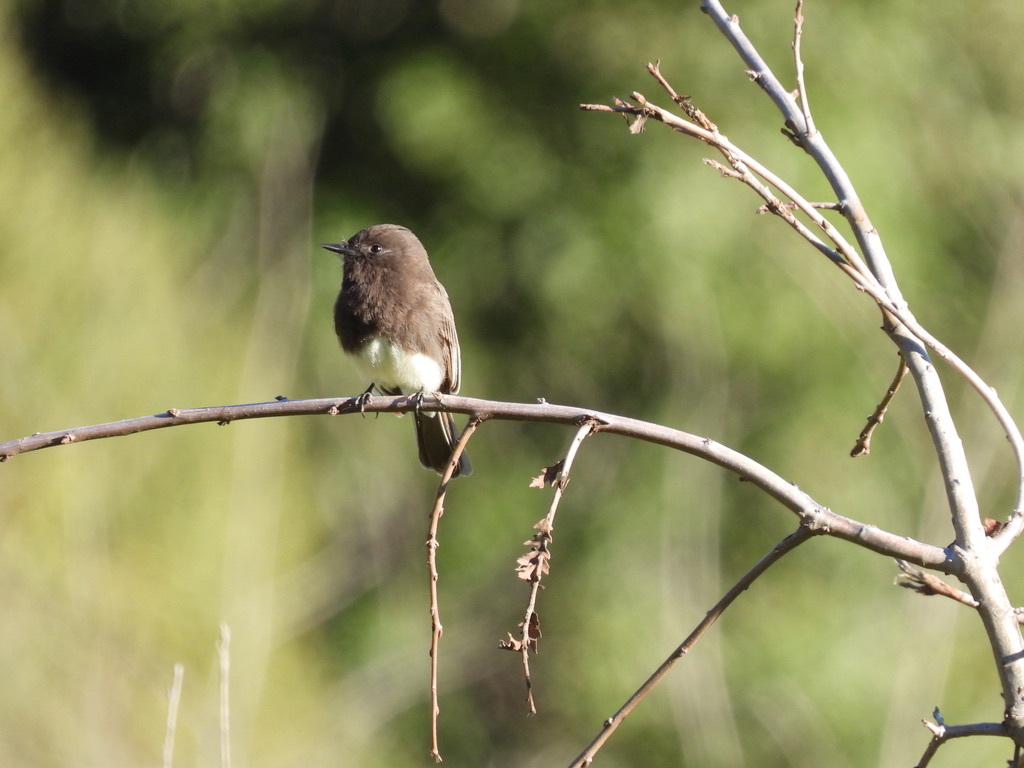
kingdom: Animalia
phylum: Chordata
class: Aves
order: Passeriformes
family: Tyrannidae
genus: Sayornis
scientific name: Sayornis nigricans
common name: Black phoebe
